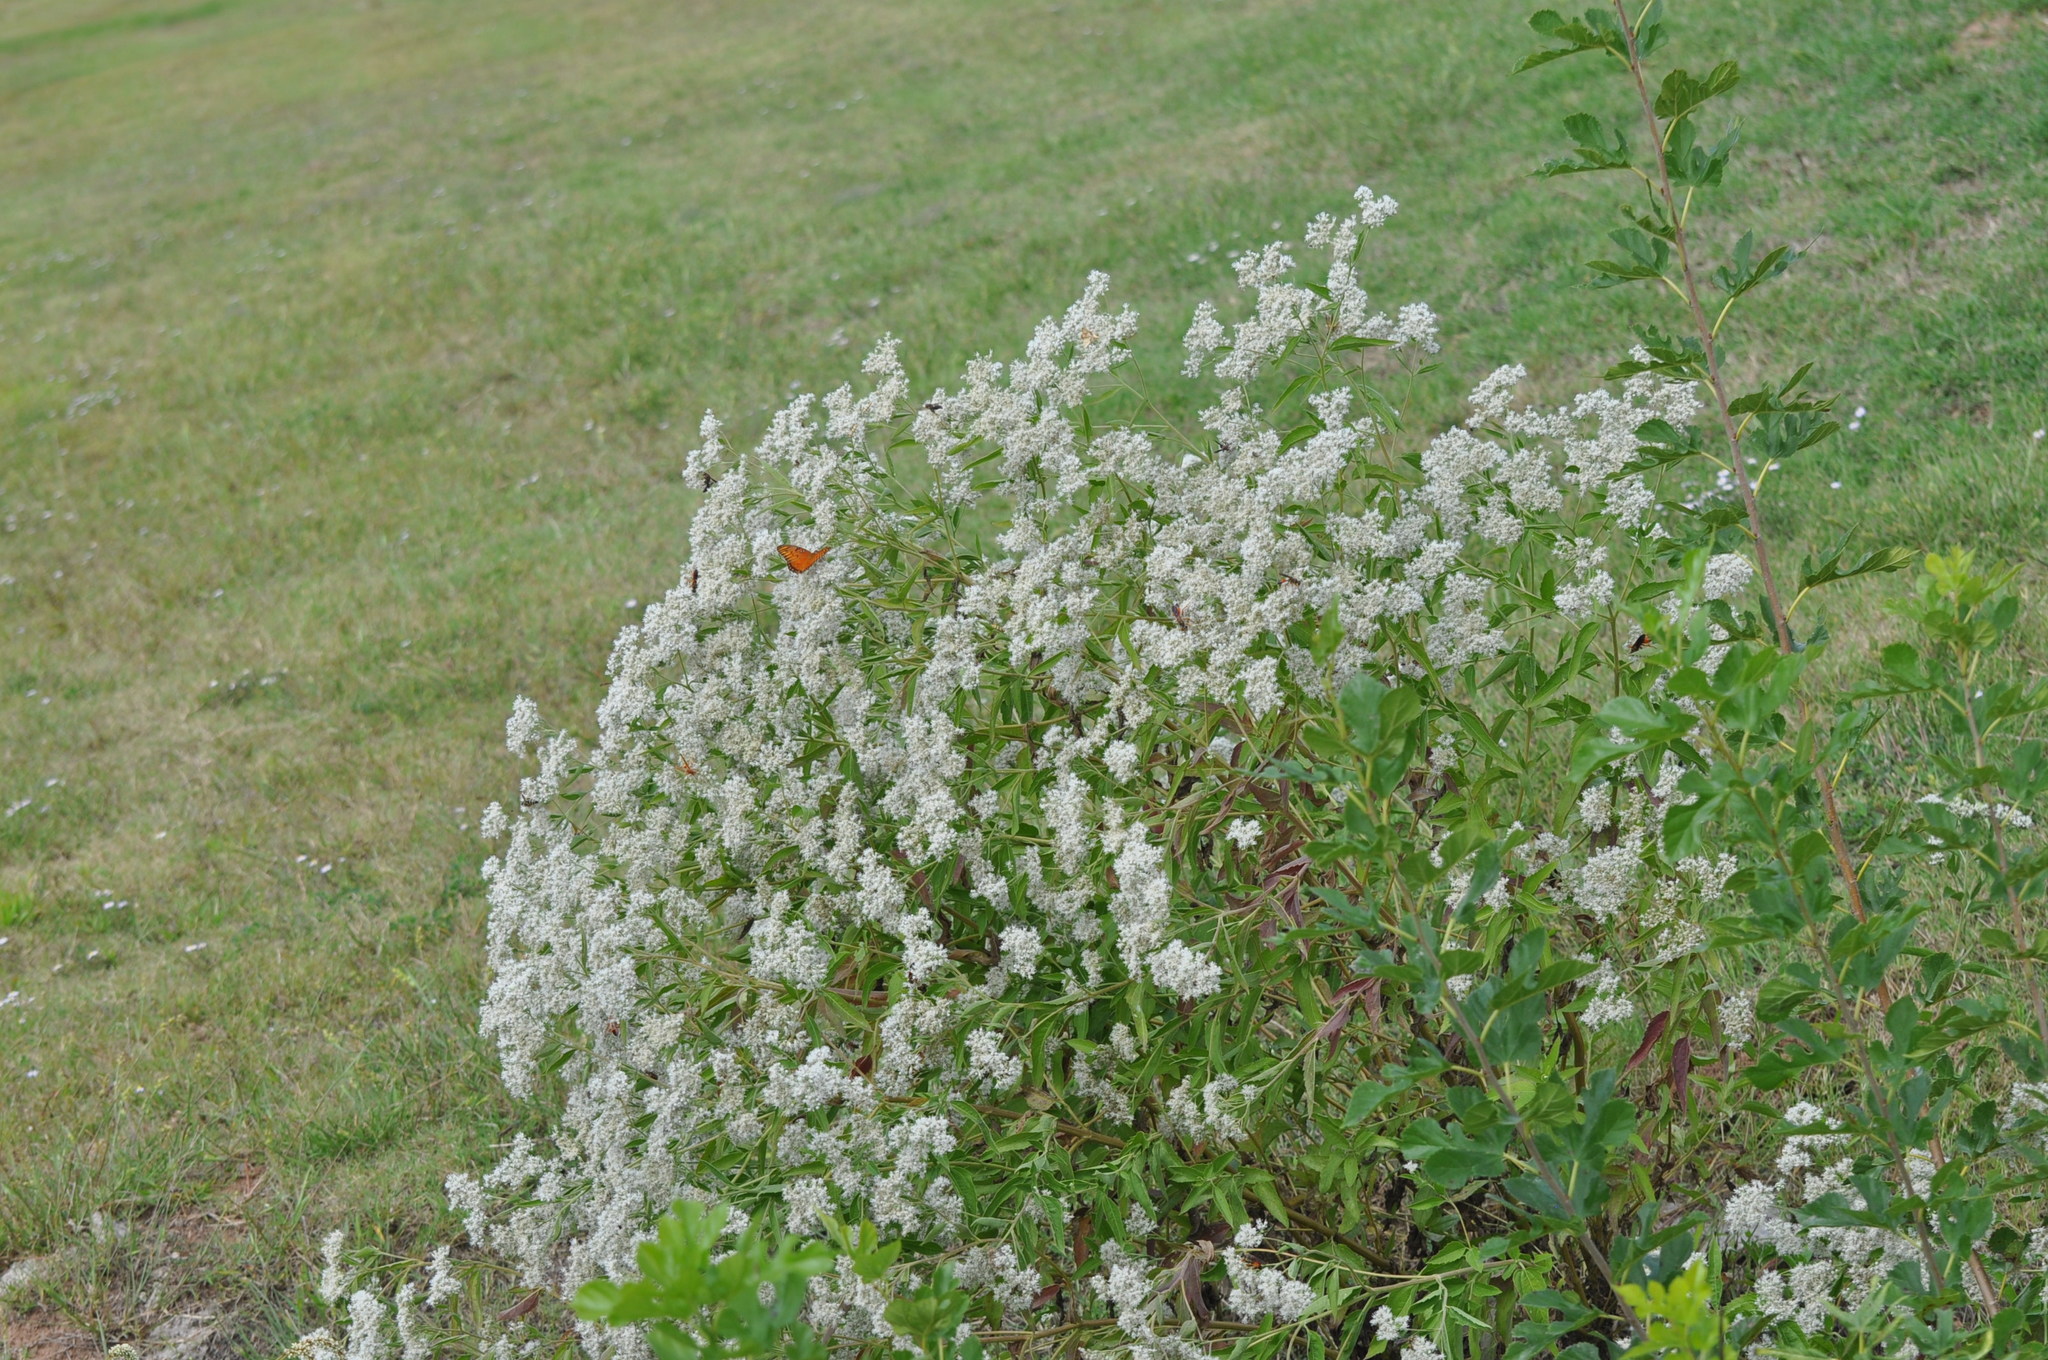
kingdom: Plantae
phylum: Tracheophyta
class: Magnoliopsida
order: Asterales
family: Asteraceae
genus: Eupatorium
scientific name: Eupatorium serotinum
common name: Late boneset
